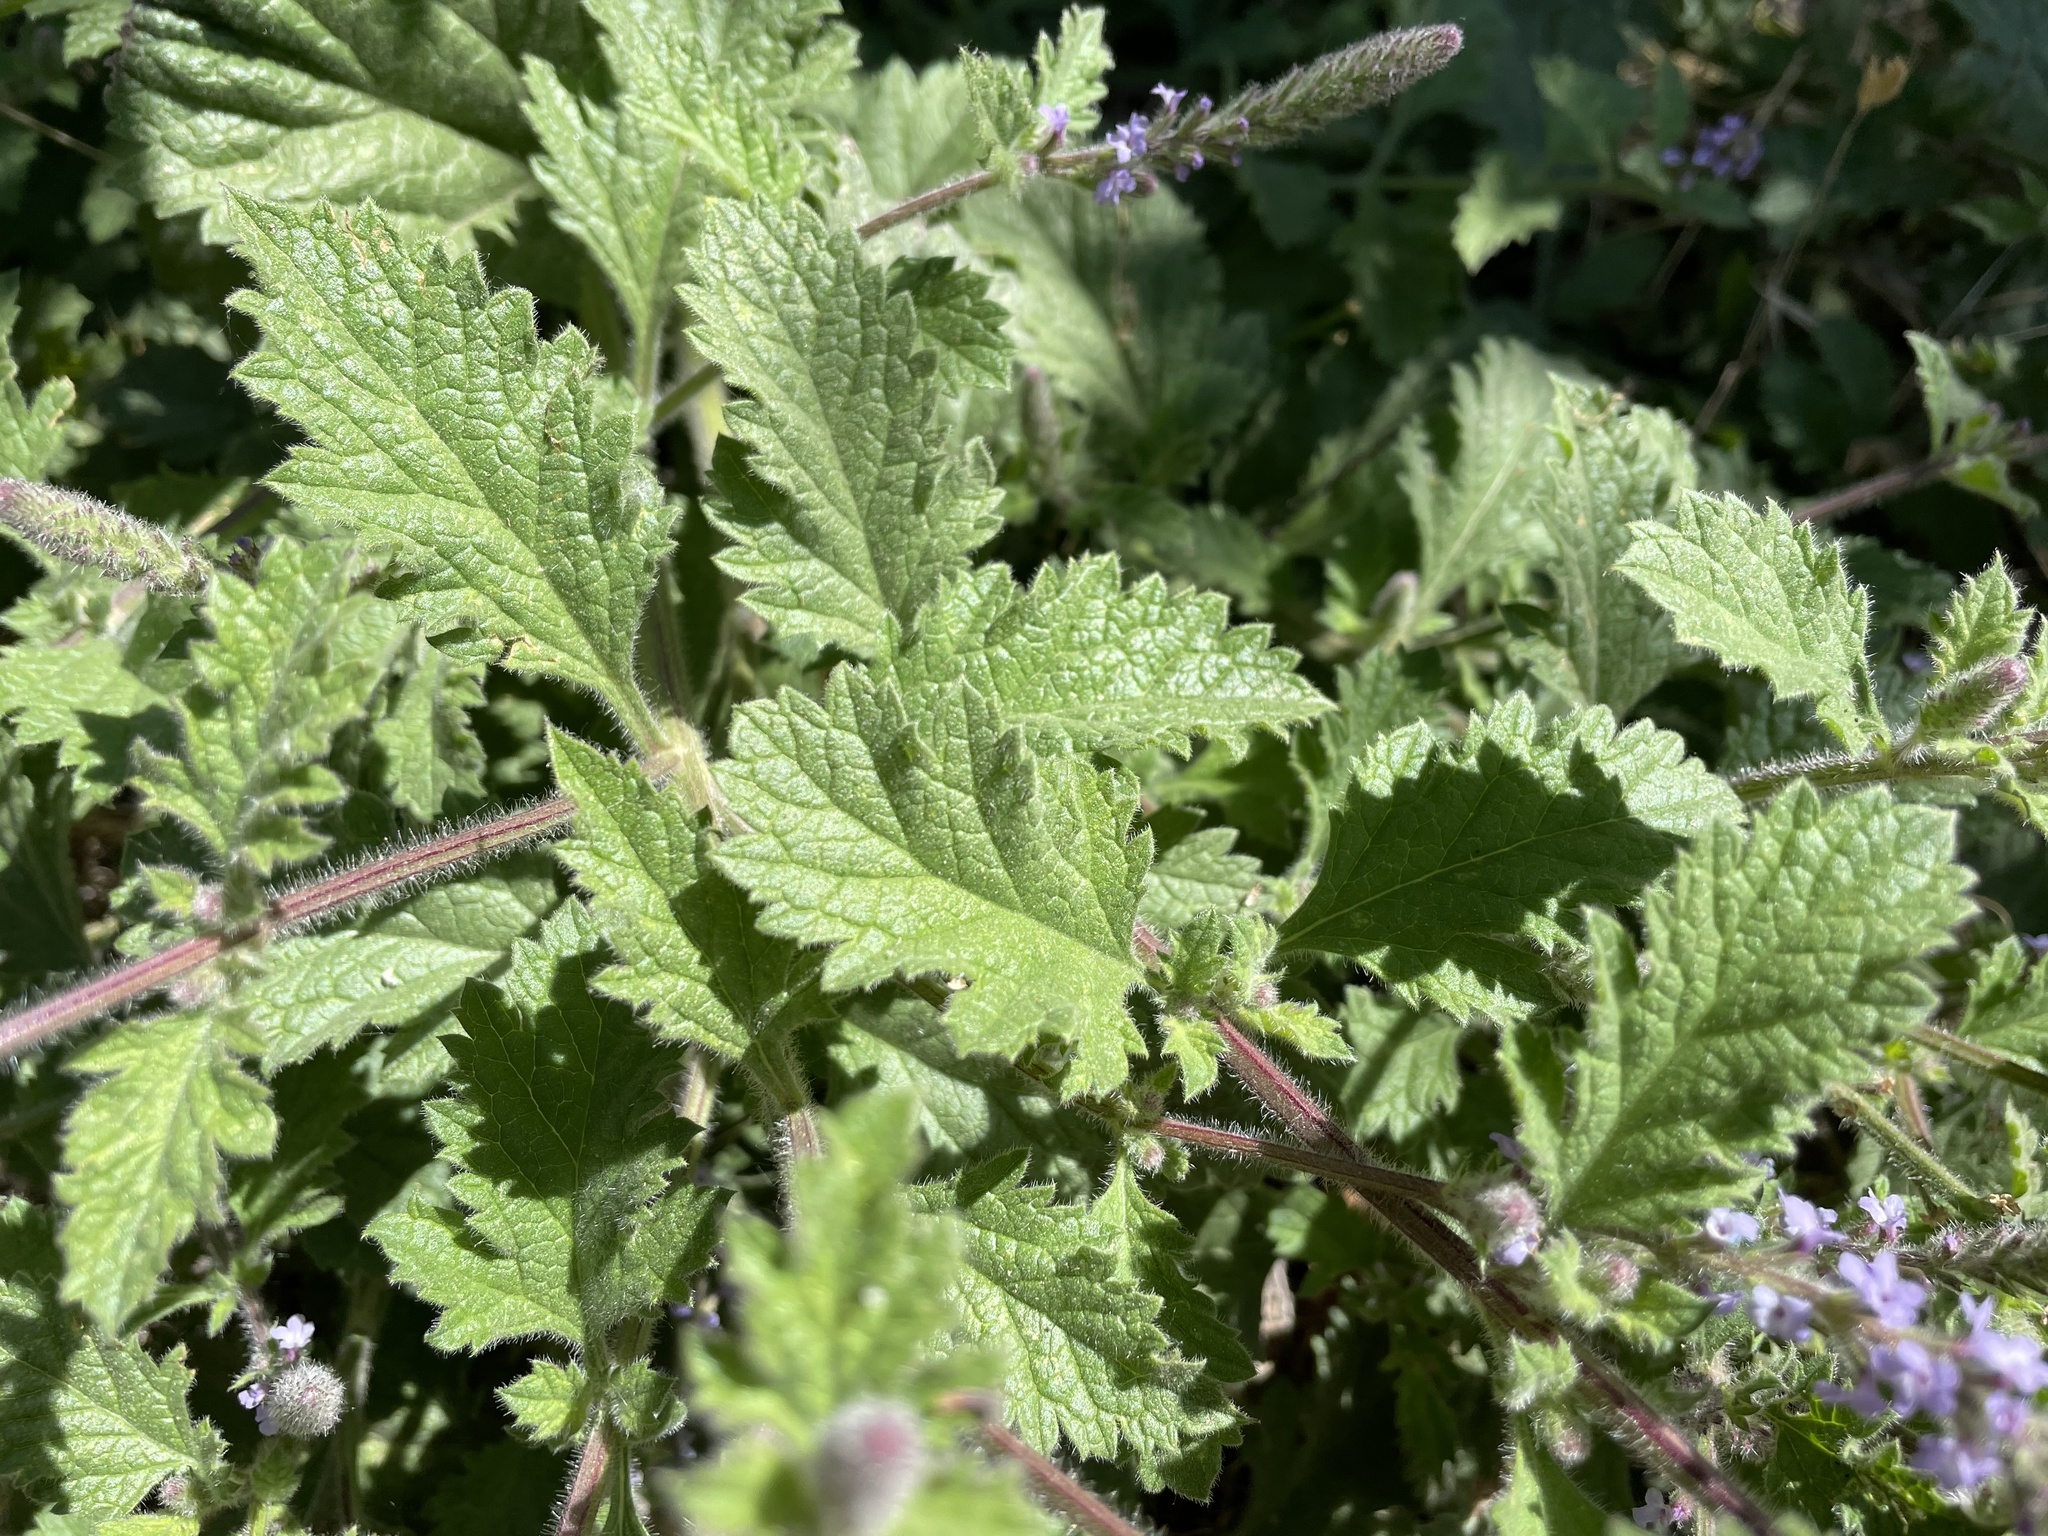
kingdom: Plantae
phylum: Tracheophyta
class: Magnoliopsida
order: Lamiales
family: Verbenaceae
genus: Verbena
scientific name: Verbena lasiostachys
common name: Vervain
